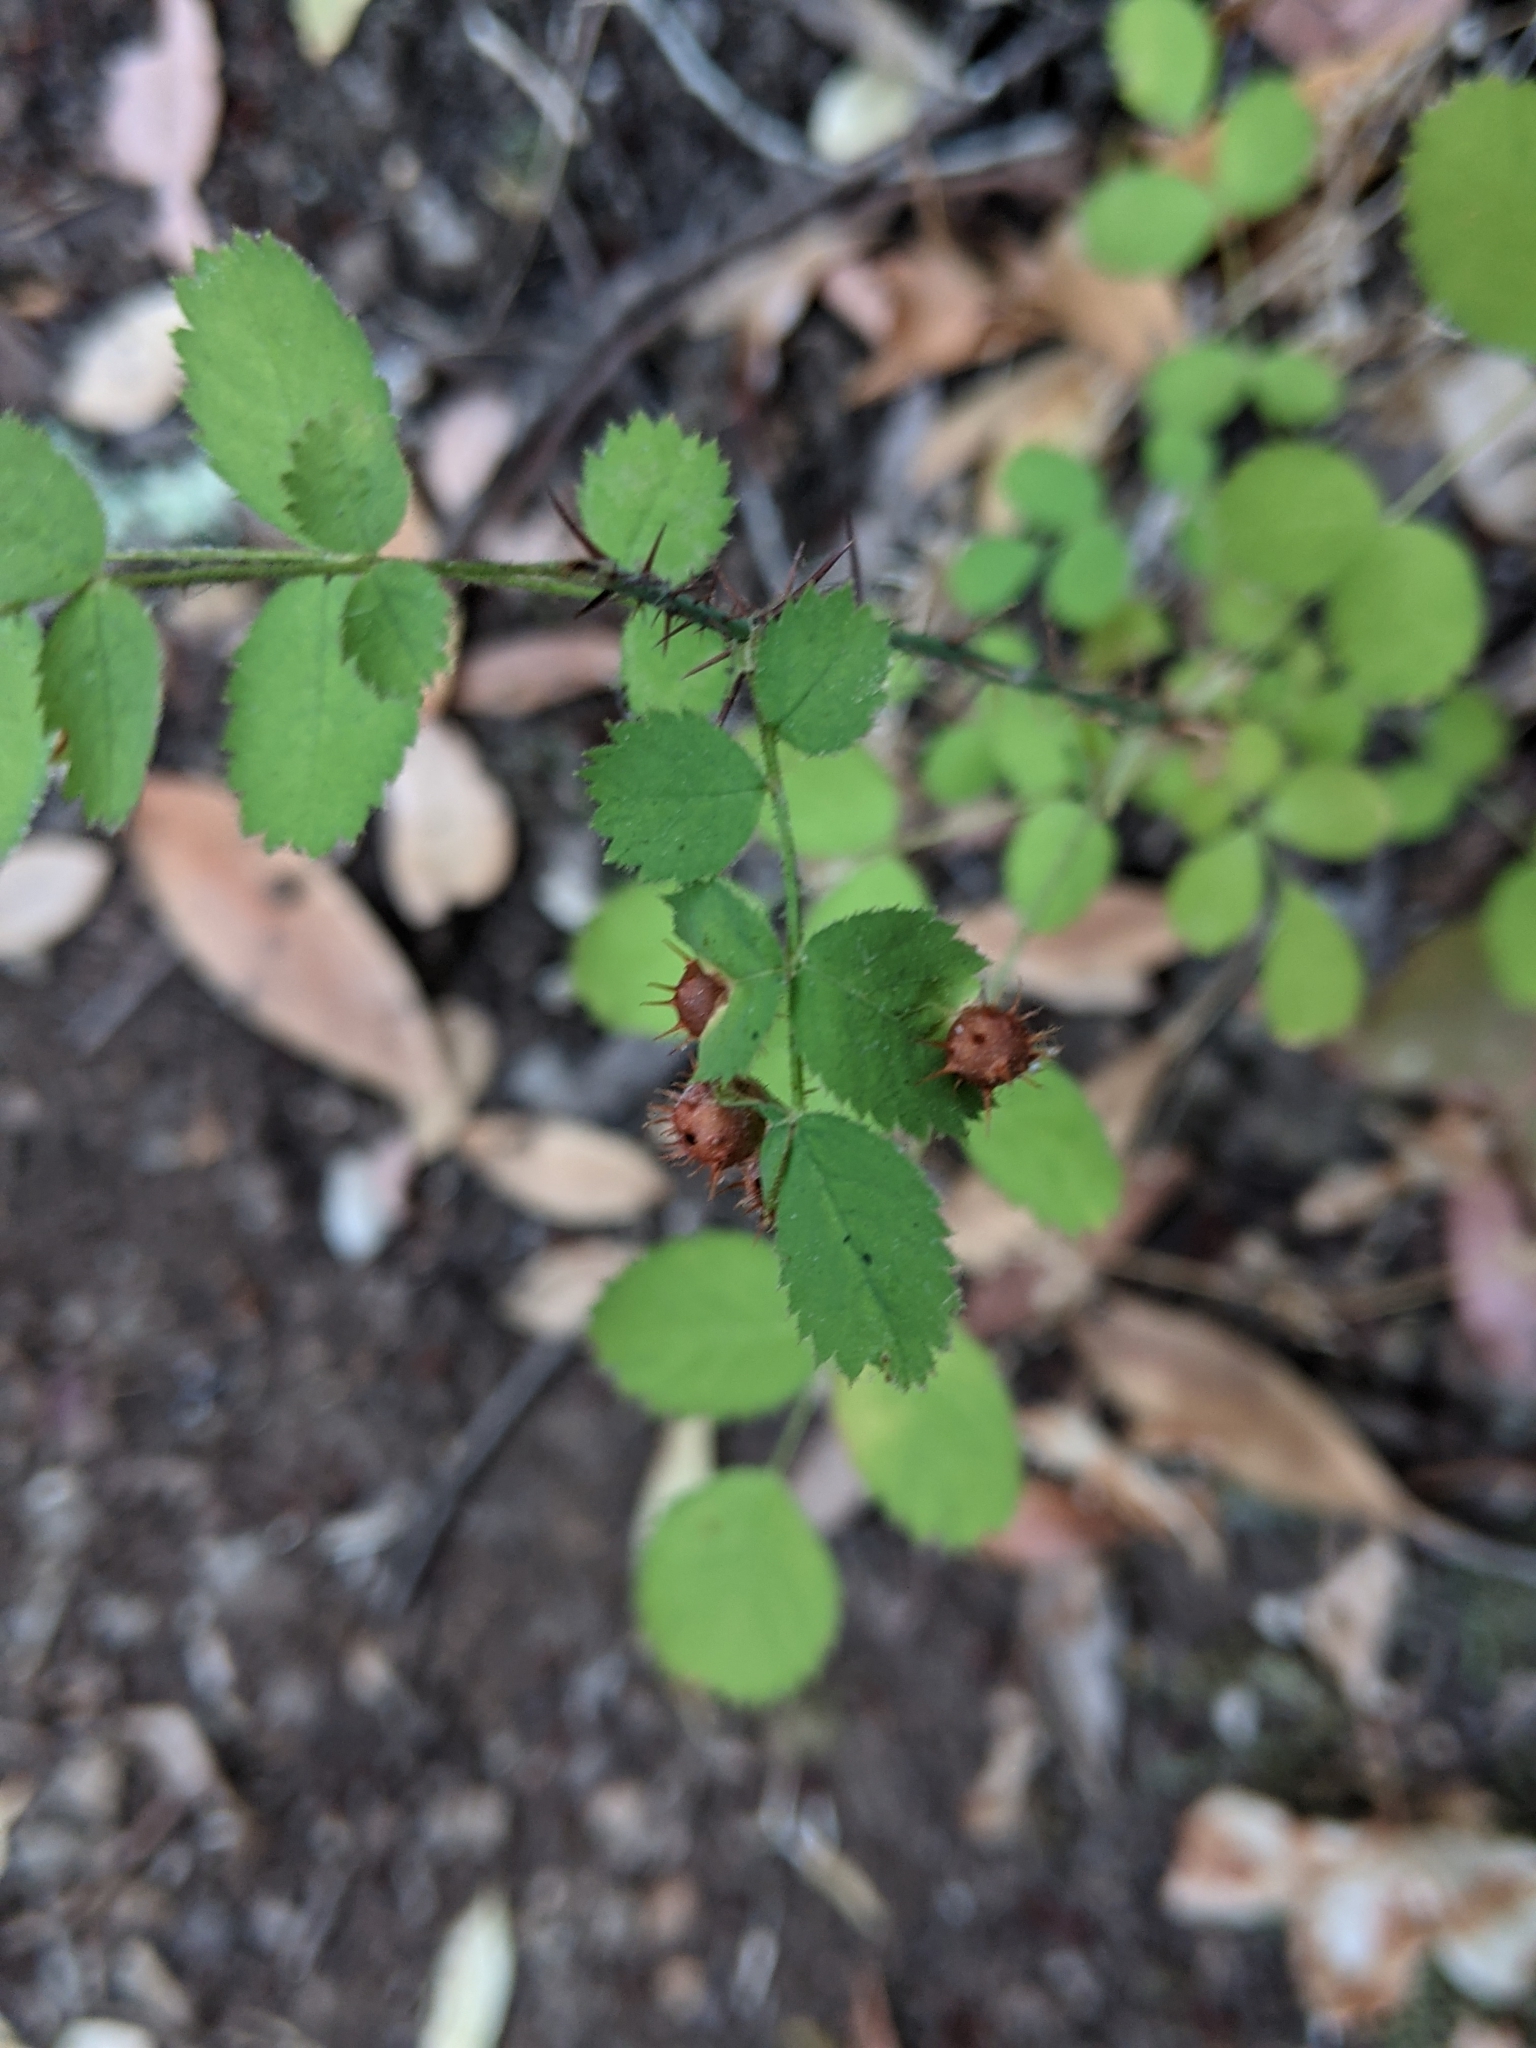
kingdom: Animalia
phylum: Arthropoda
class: Insecta
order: Hymenoptera
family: Cynipidae
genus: Diplolepis
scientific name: Diplolepis polita
